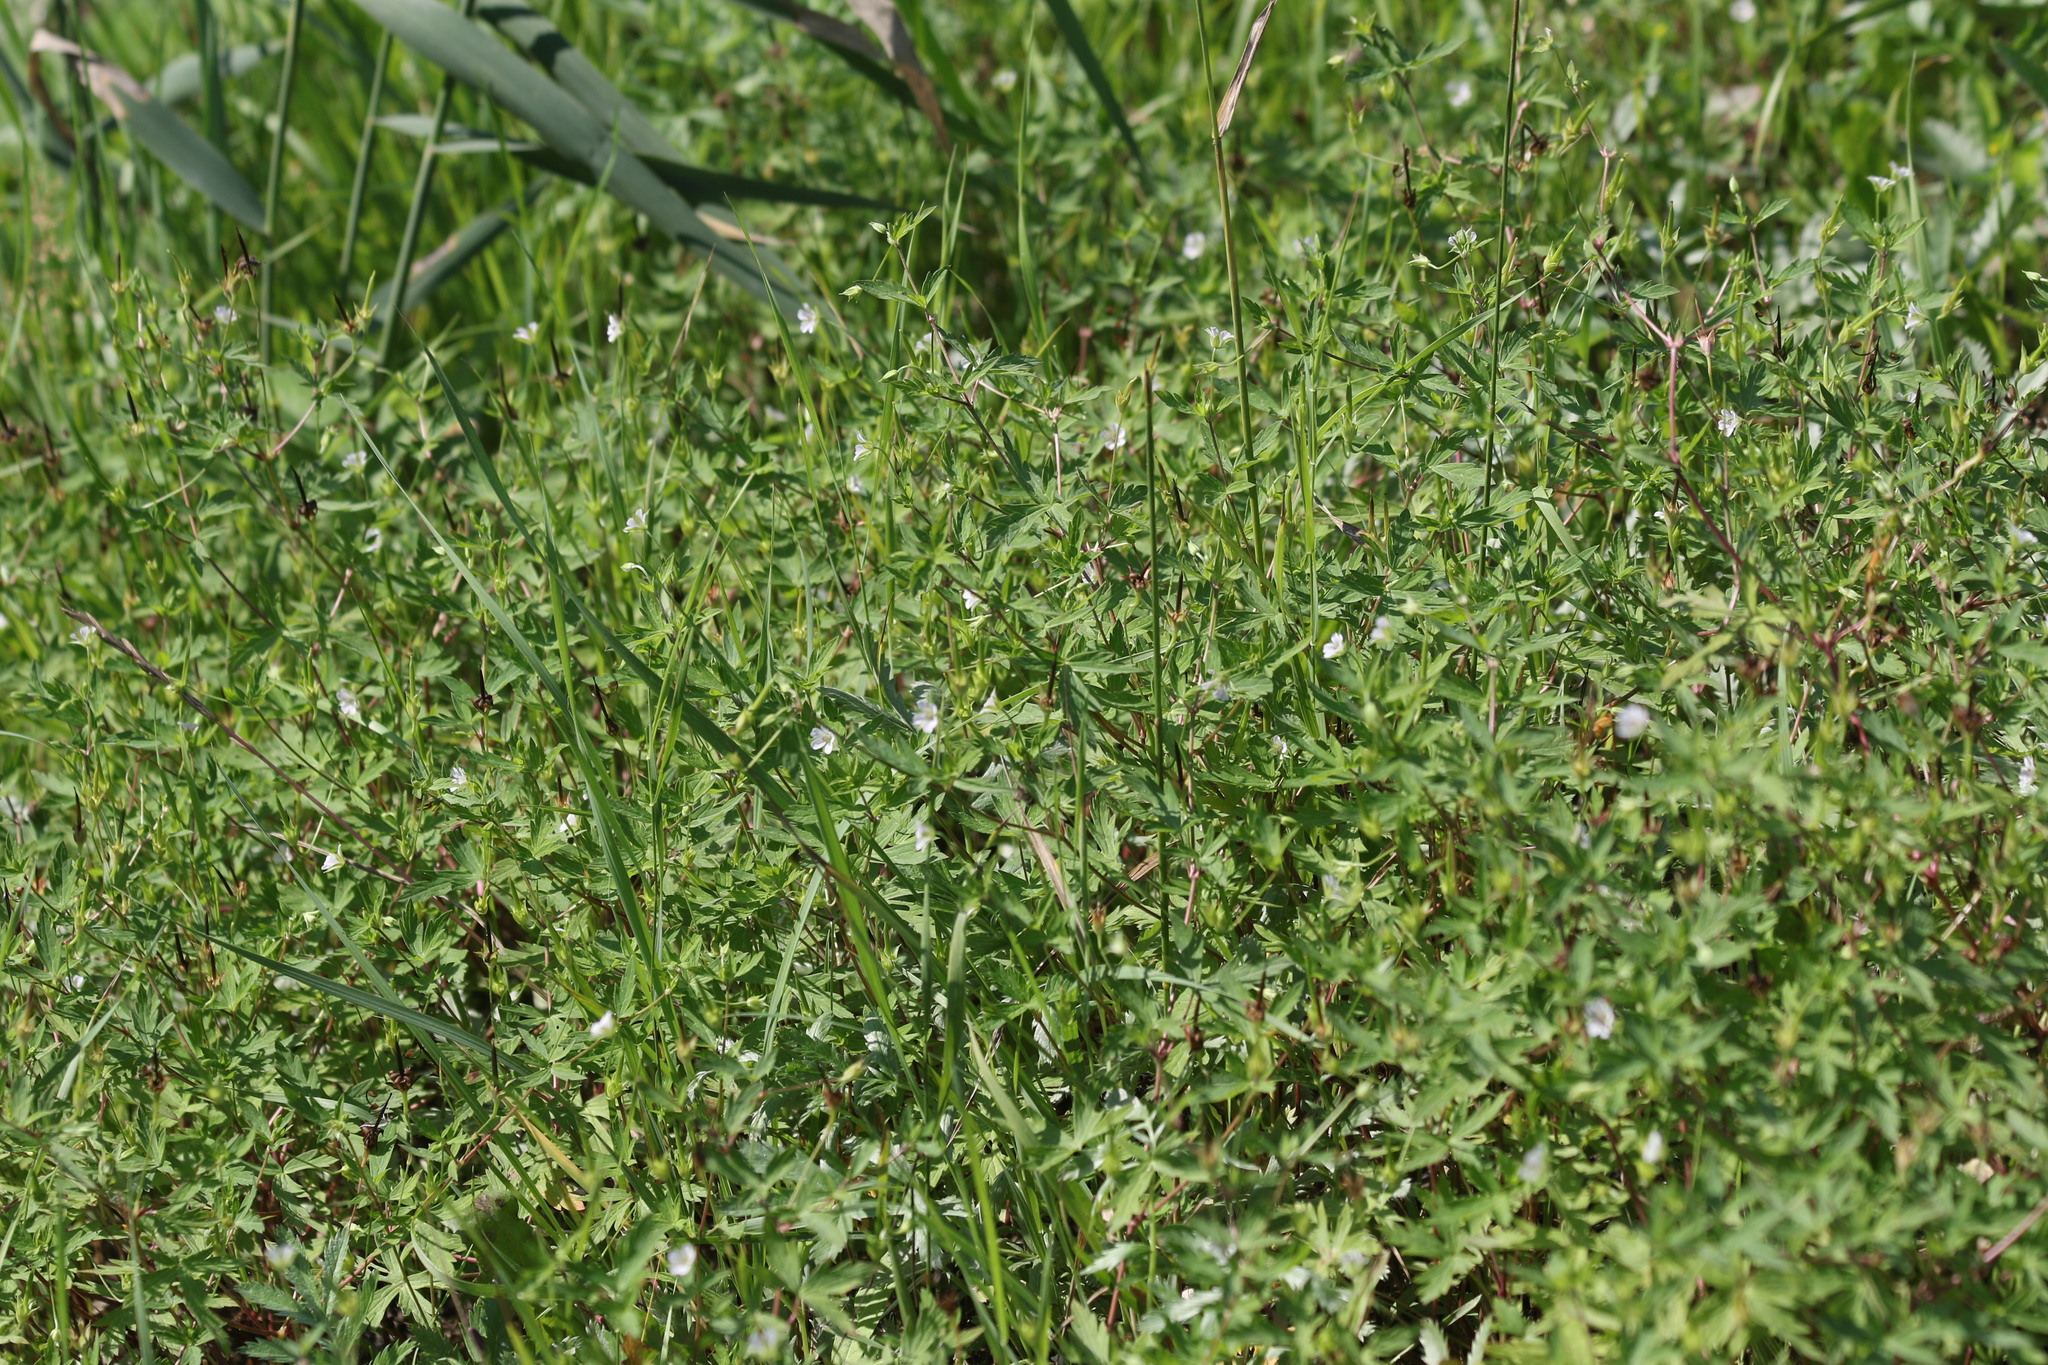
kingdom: Plantae
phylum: Tracheophyta
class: Magnoliopsida
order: Geraniales
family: Geraniaceae
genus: Geranium
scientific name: Geranium sibiricum
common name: Siberian crane's-bill
